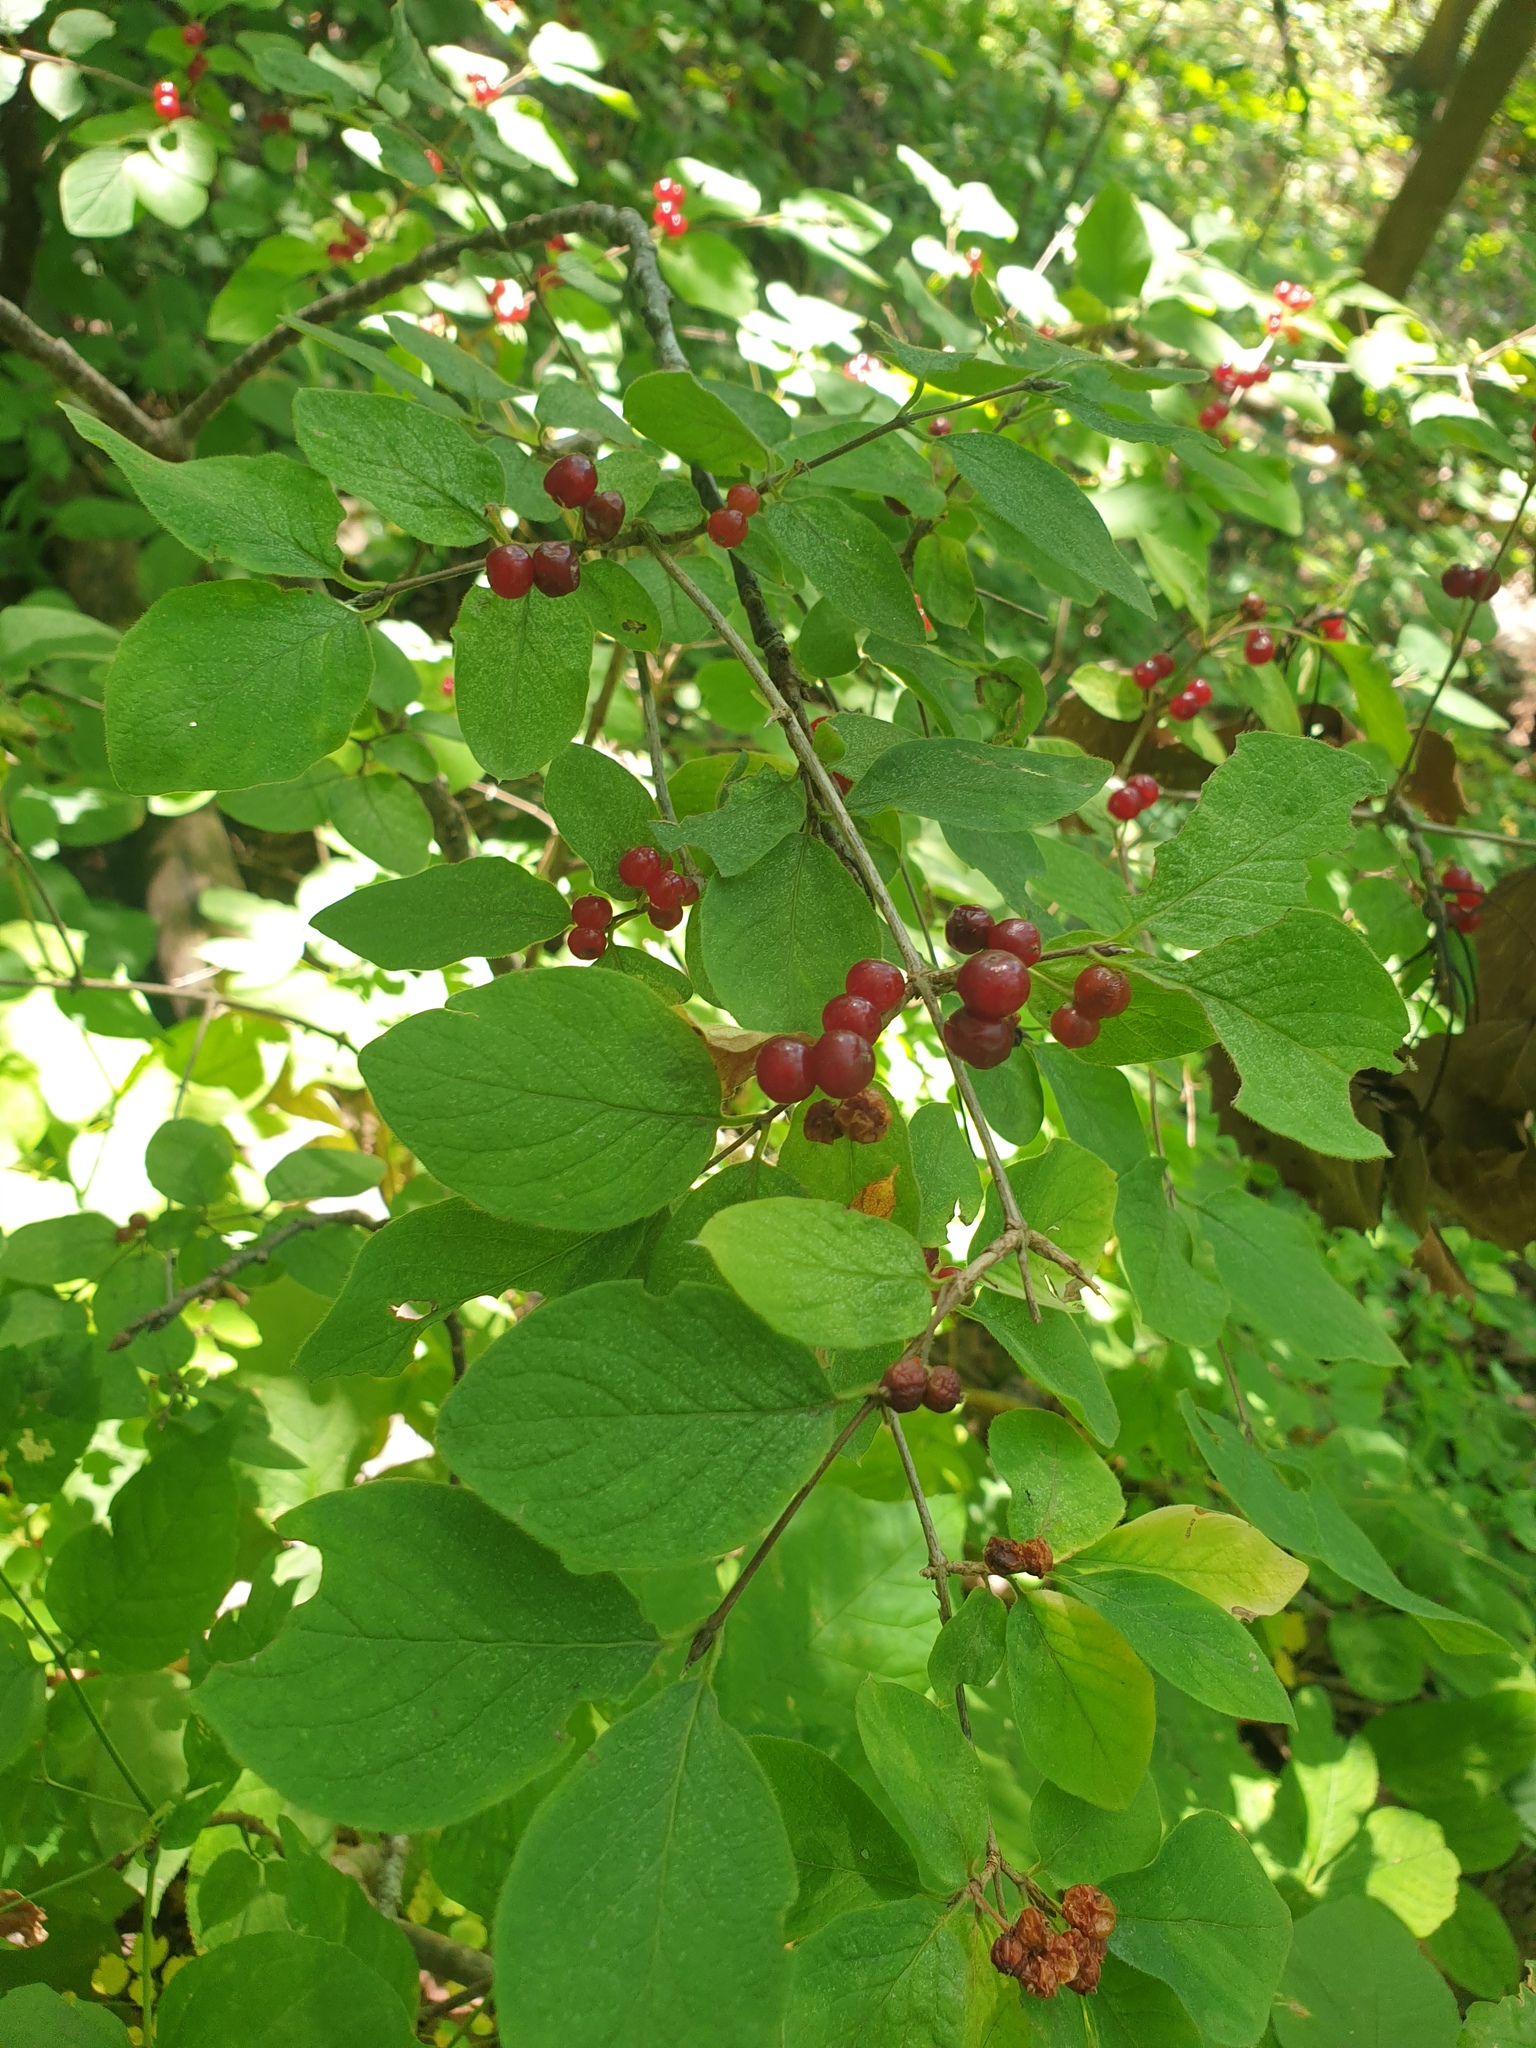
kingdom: Plantae
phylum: Tracheophyta
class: Magnoliopsida
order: Dipsacales
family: Caprifoliaceae
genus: Lonicera
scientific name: Lonicera xylosteum
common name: Fly honeysuckle
